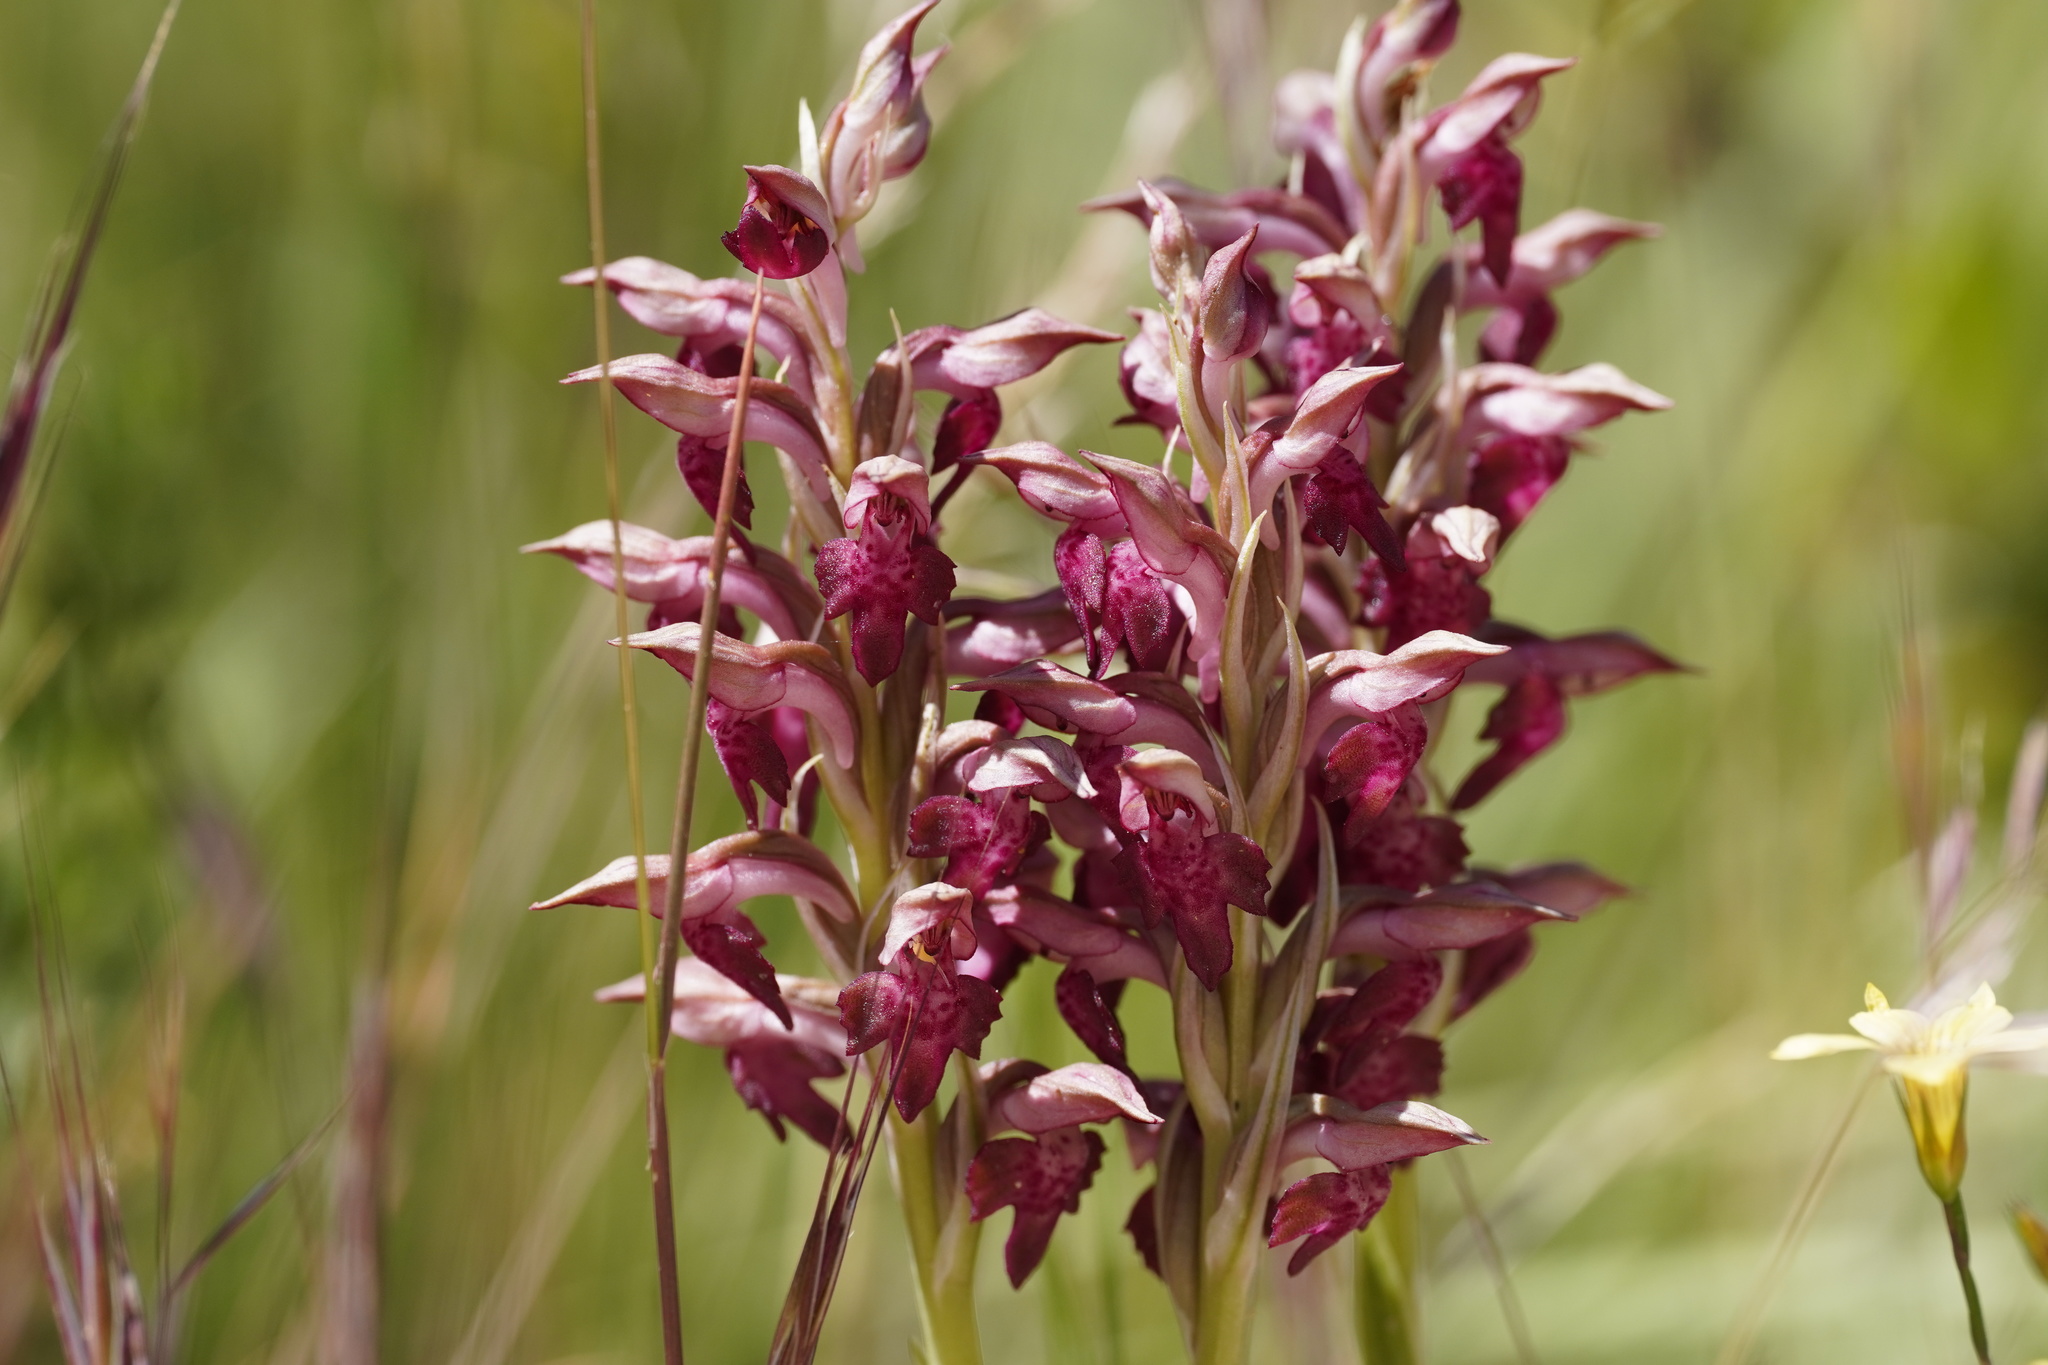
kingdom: Plantae
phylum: Tracheophyta
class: Liliopsida
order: Asparagales
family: Orchidaceae
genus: Anacamptis
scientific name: Anacamptis coriophora
